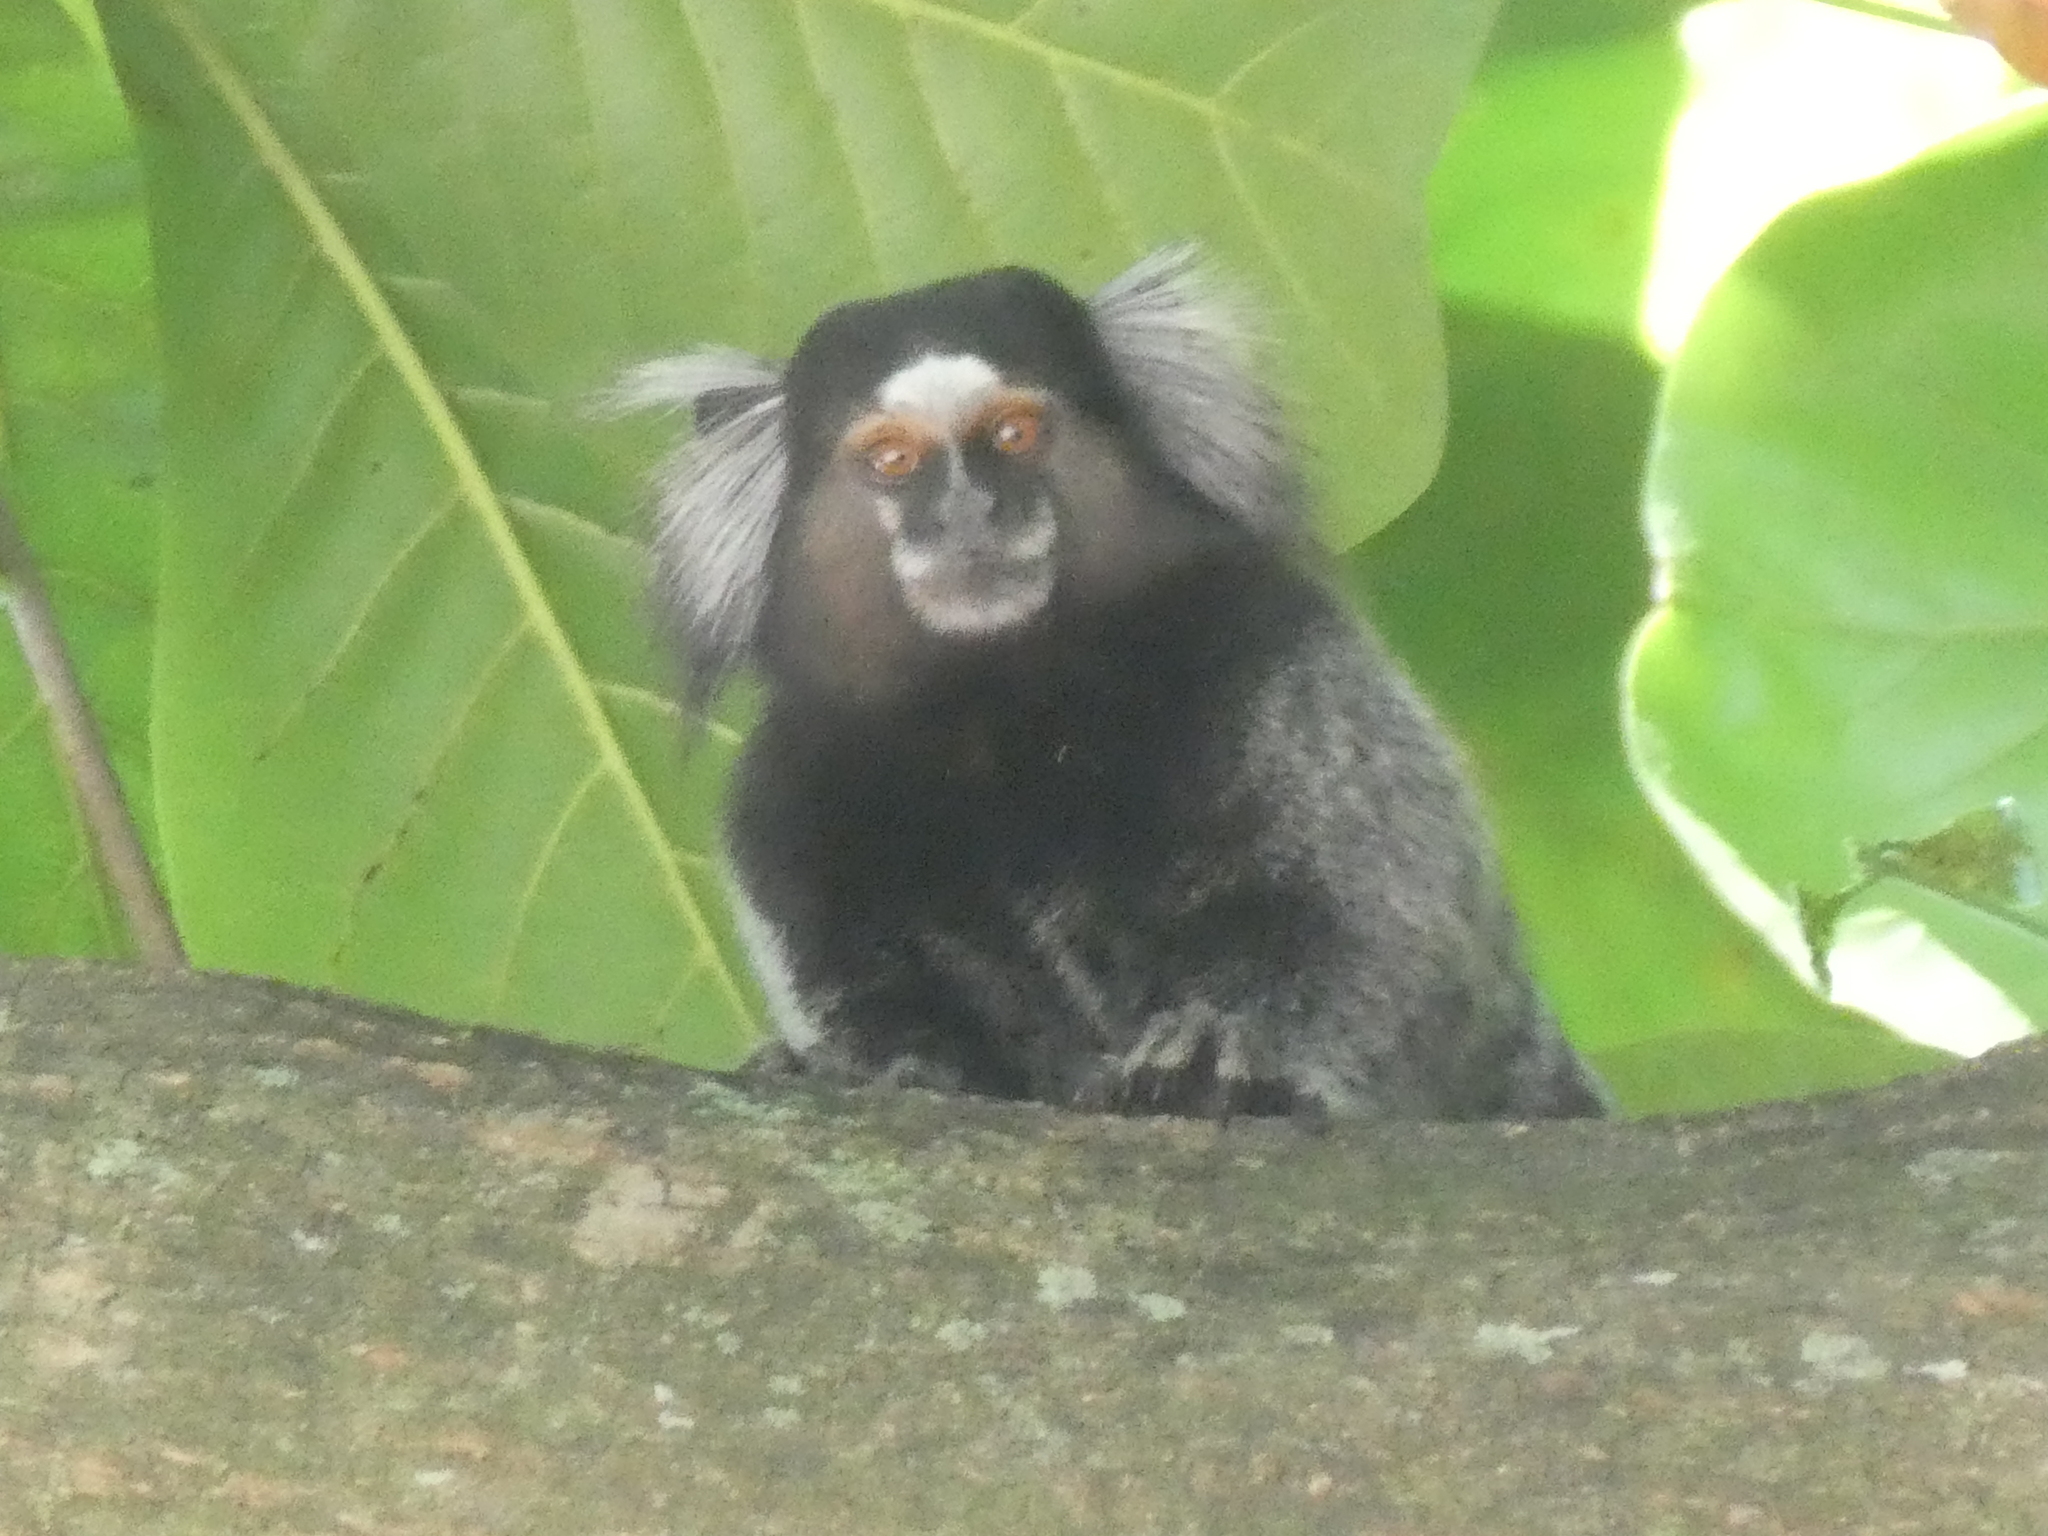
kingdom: Animalia
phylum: Chordata
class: Mammalia
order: Primates
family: Callitrichidae
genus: Callithrix
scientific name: Callithrix penicillata
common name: Black-tufted marmoset
